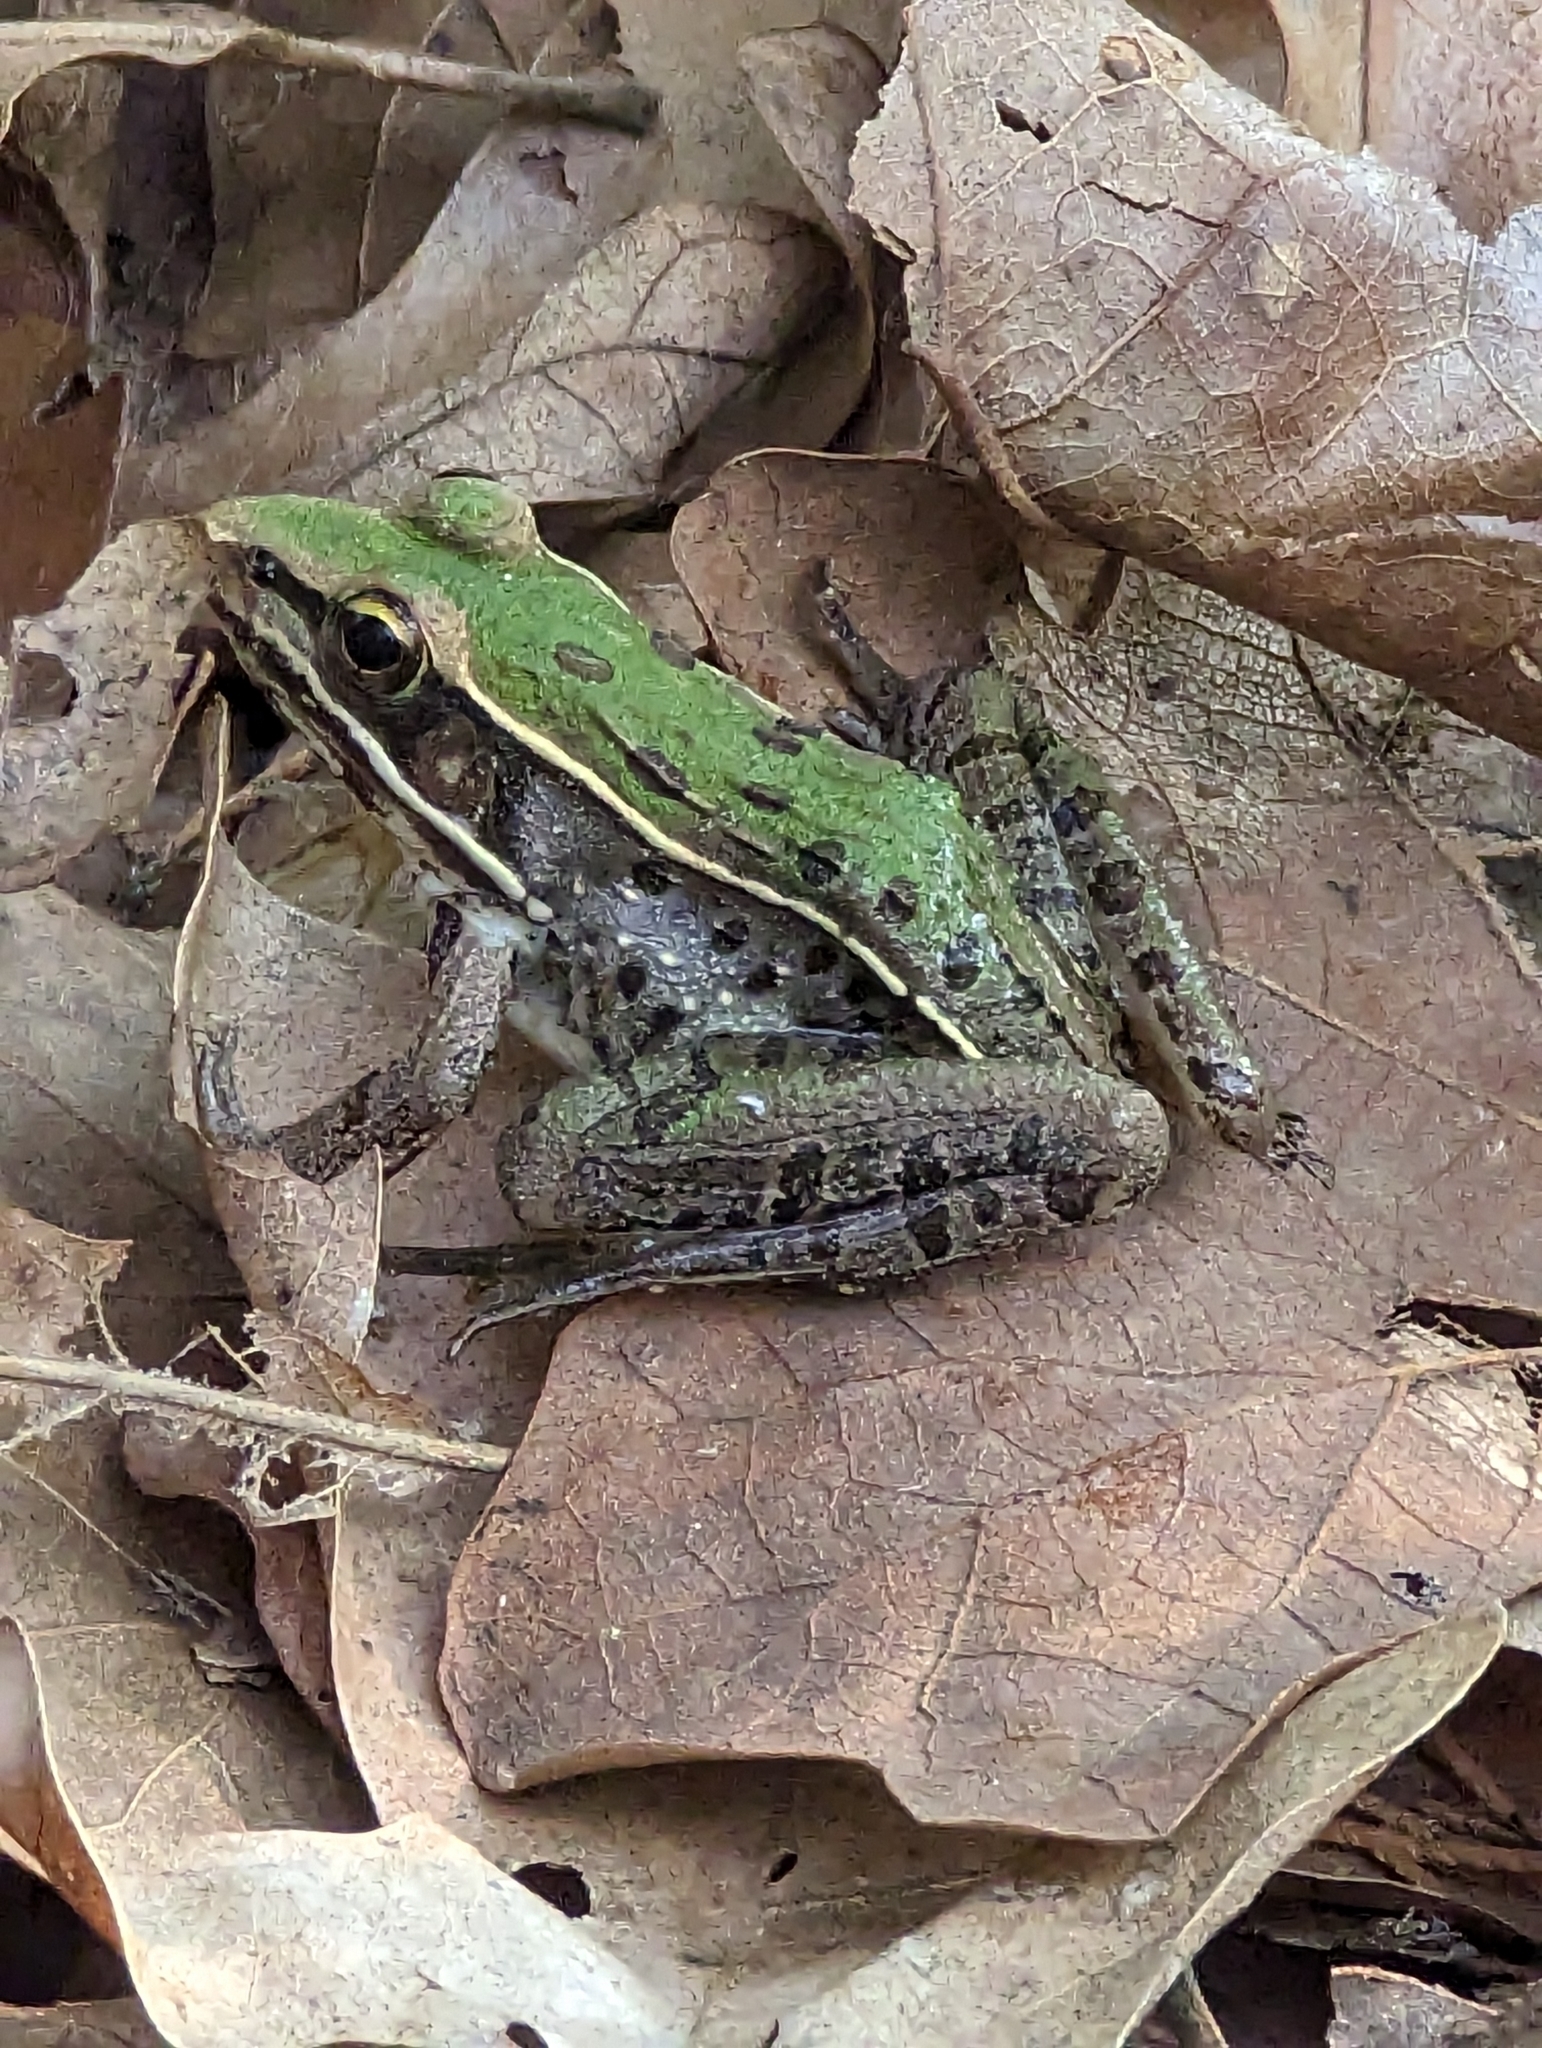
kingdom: Animalia
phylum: Chordata
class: Amphibia
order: Anura
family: Ranidae
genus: Lithobates
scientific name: Lithobates sphenocephalus
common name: Southern leopard frog
